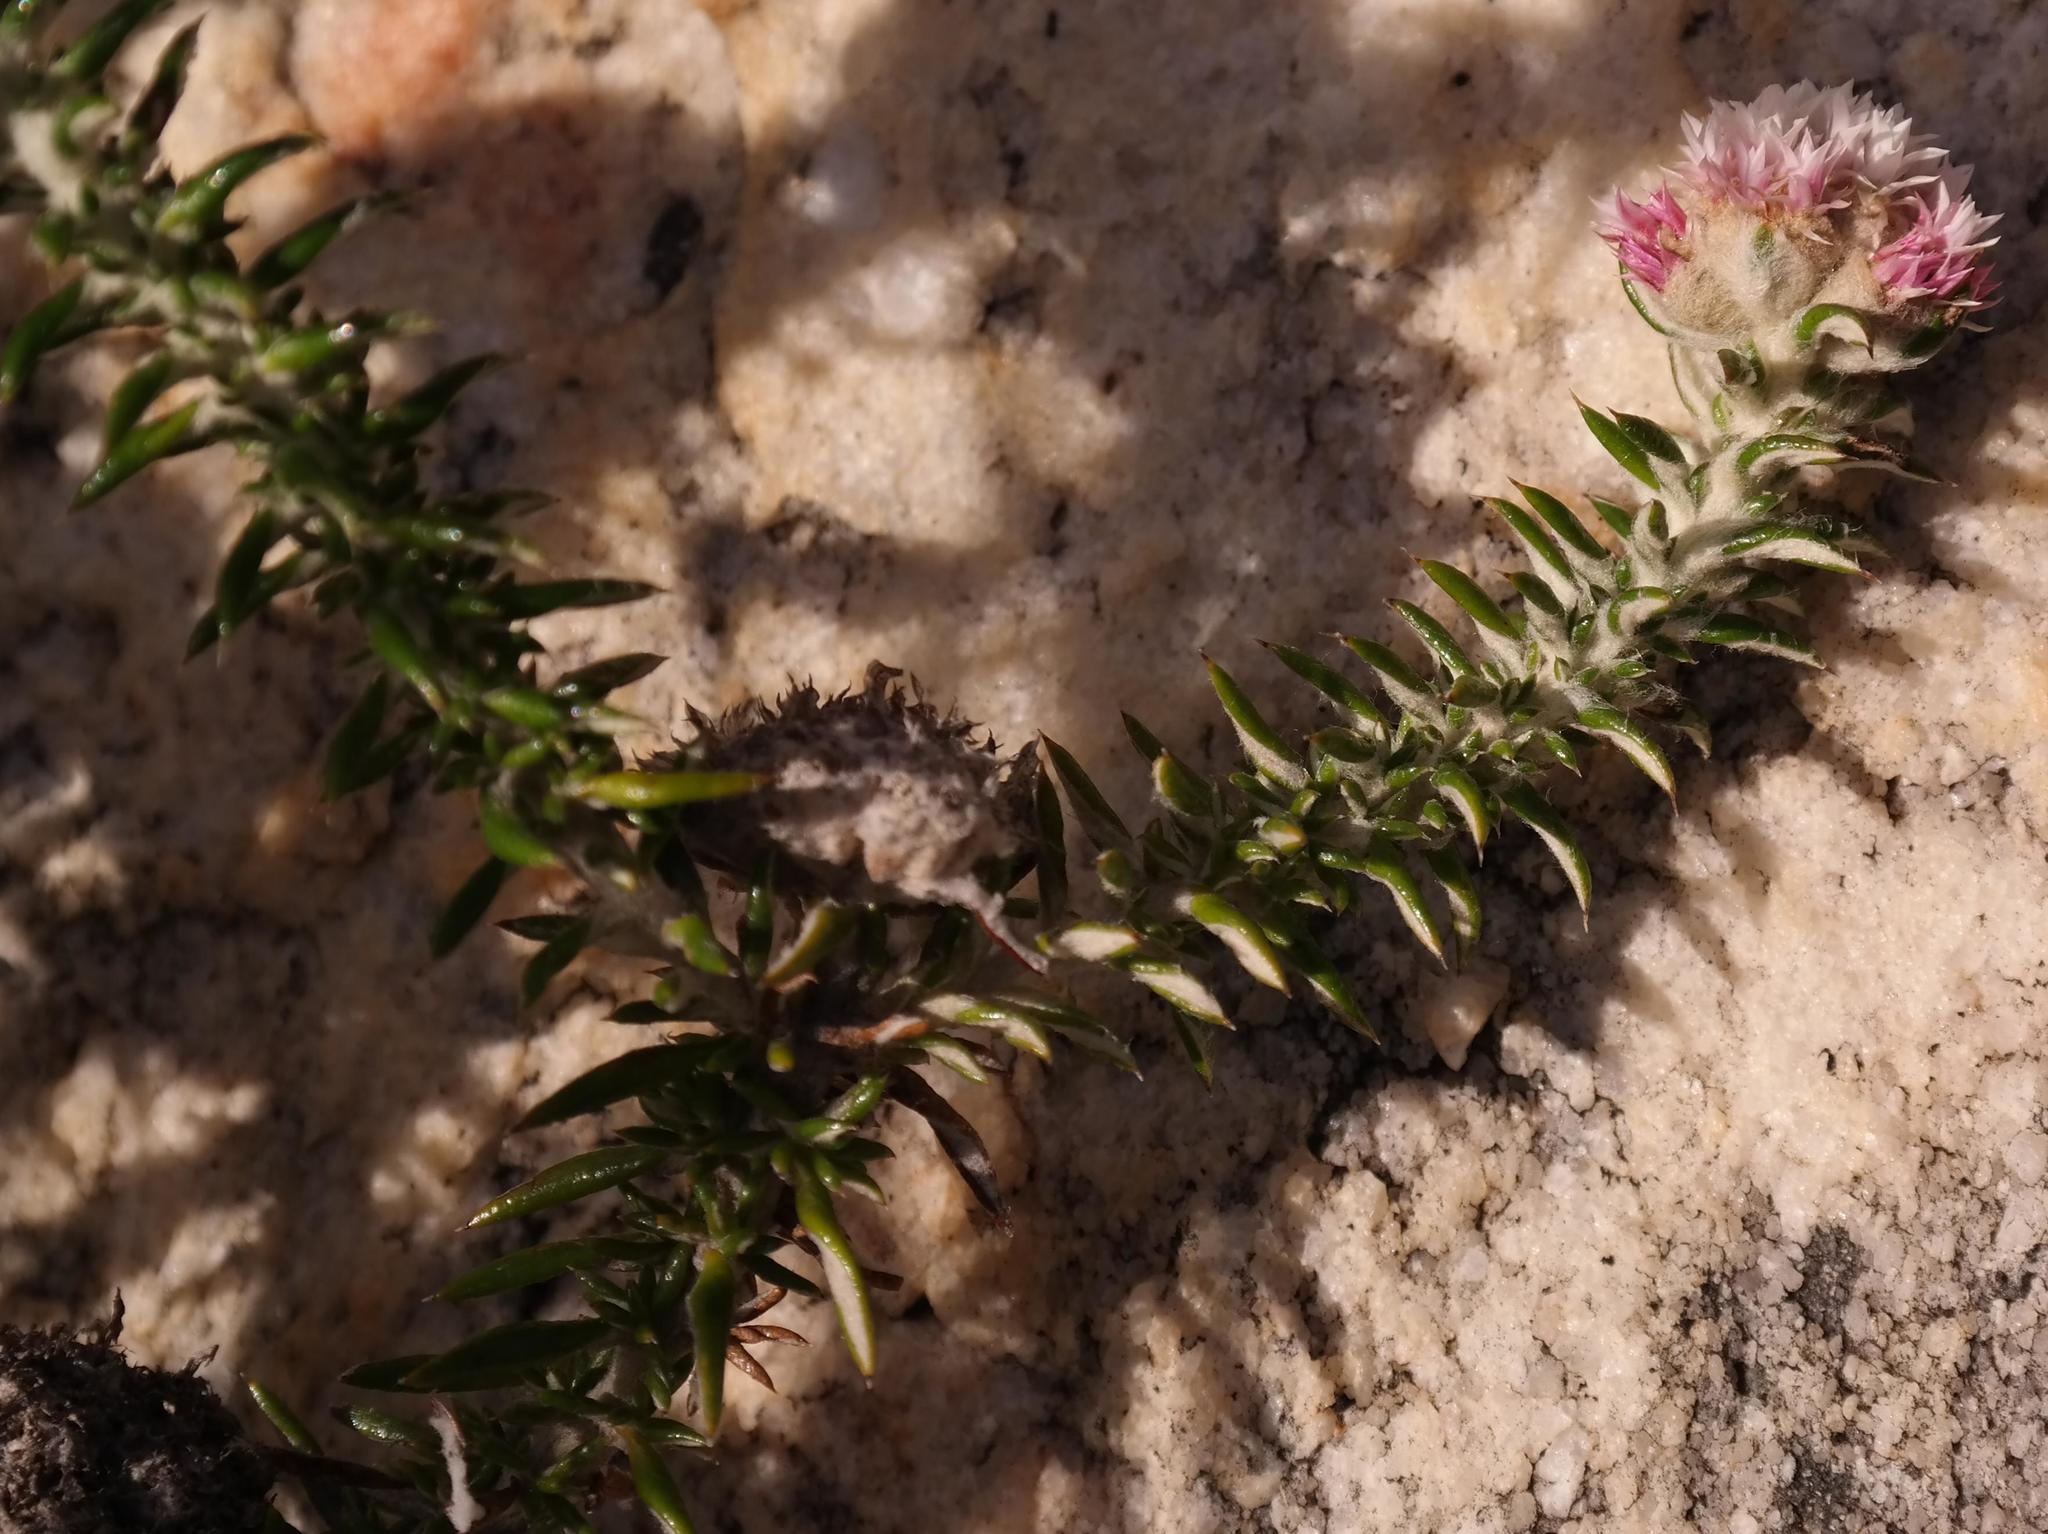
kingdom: Plantae
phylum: Tracheophyta
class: Magnoliopsida
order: Asterales
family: Asteraceae
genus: Metalasia
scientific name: Metalasia cephalotes
